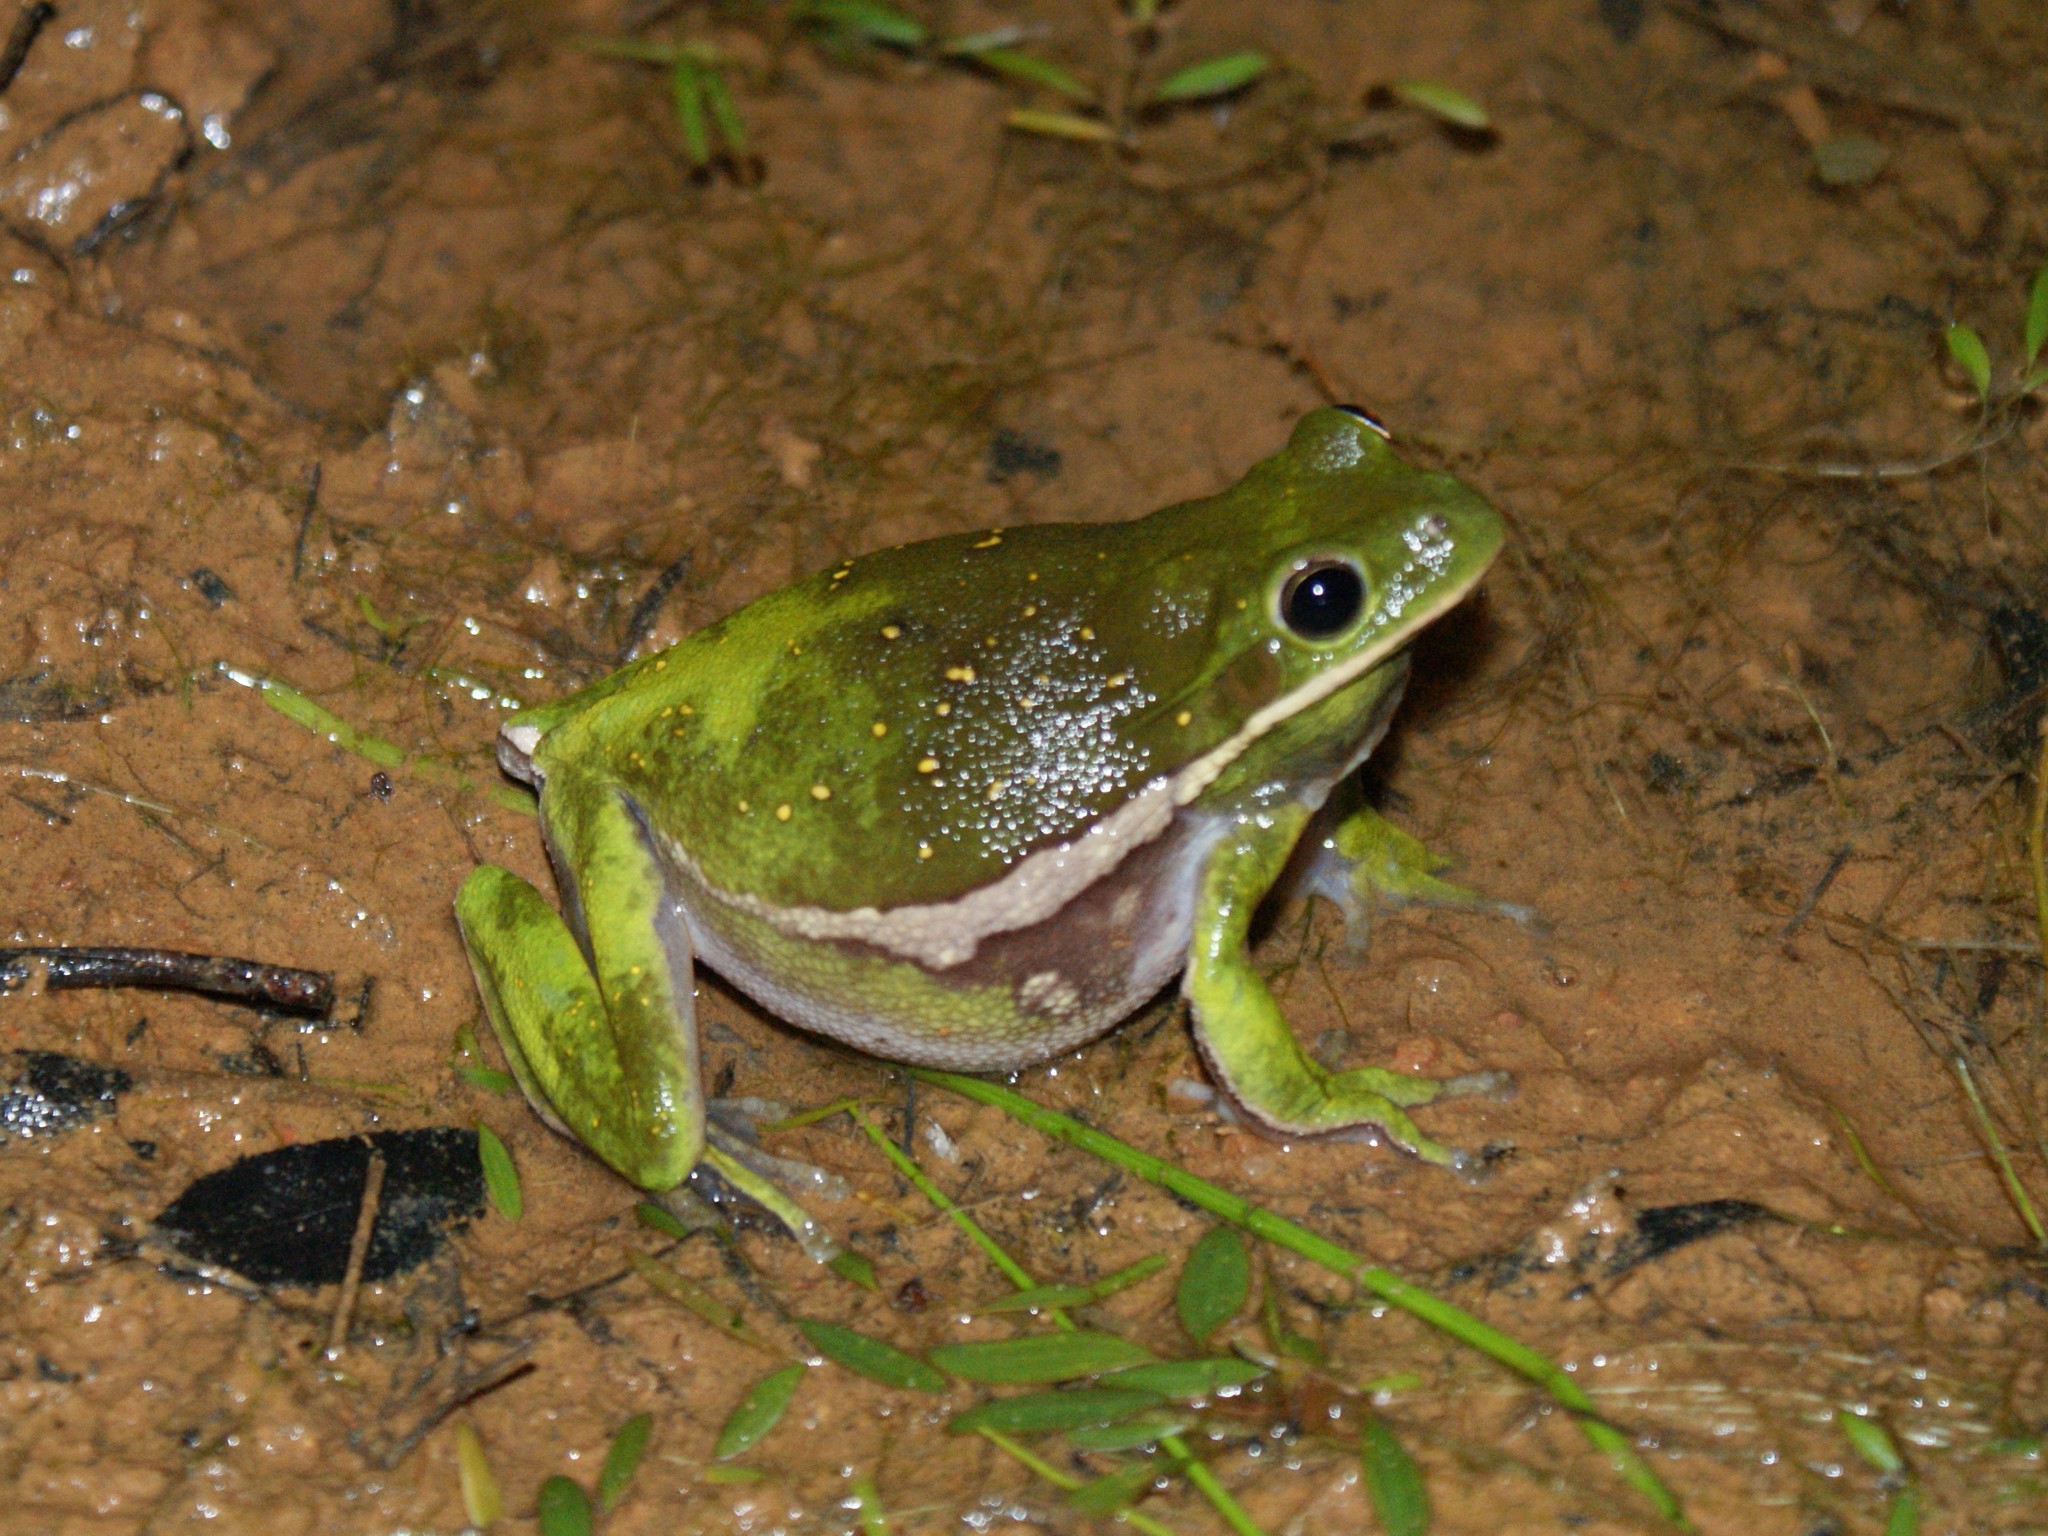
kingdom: Animalia
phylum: Chordata
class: Amphibia
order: Anura
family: Hylidae
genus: Hyla
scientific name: Hyla
